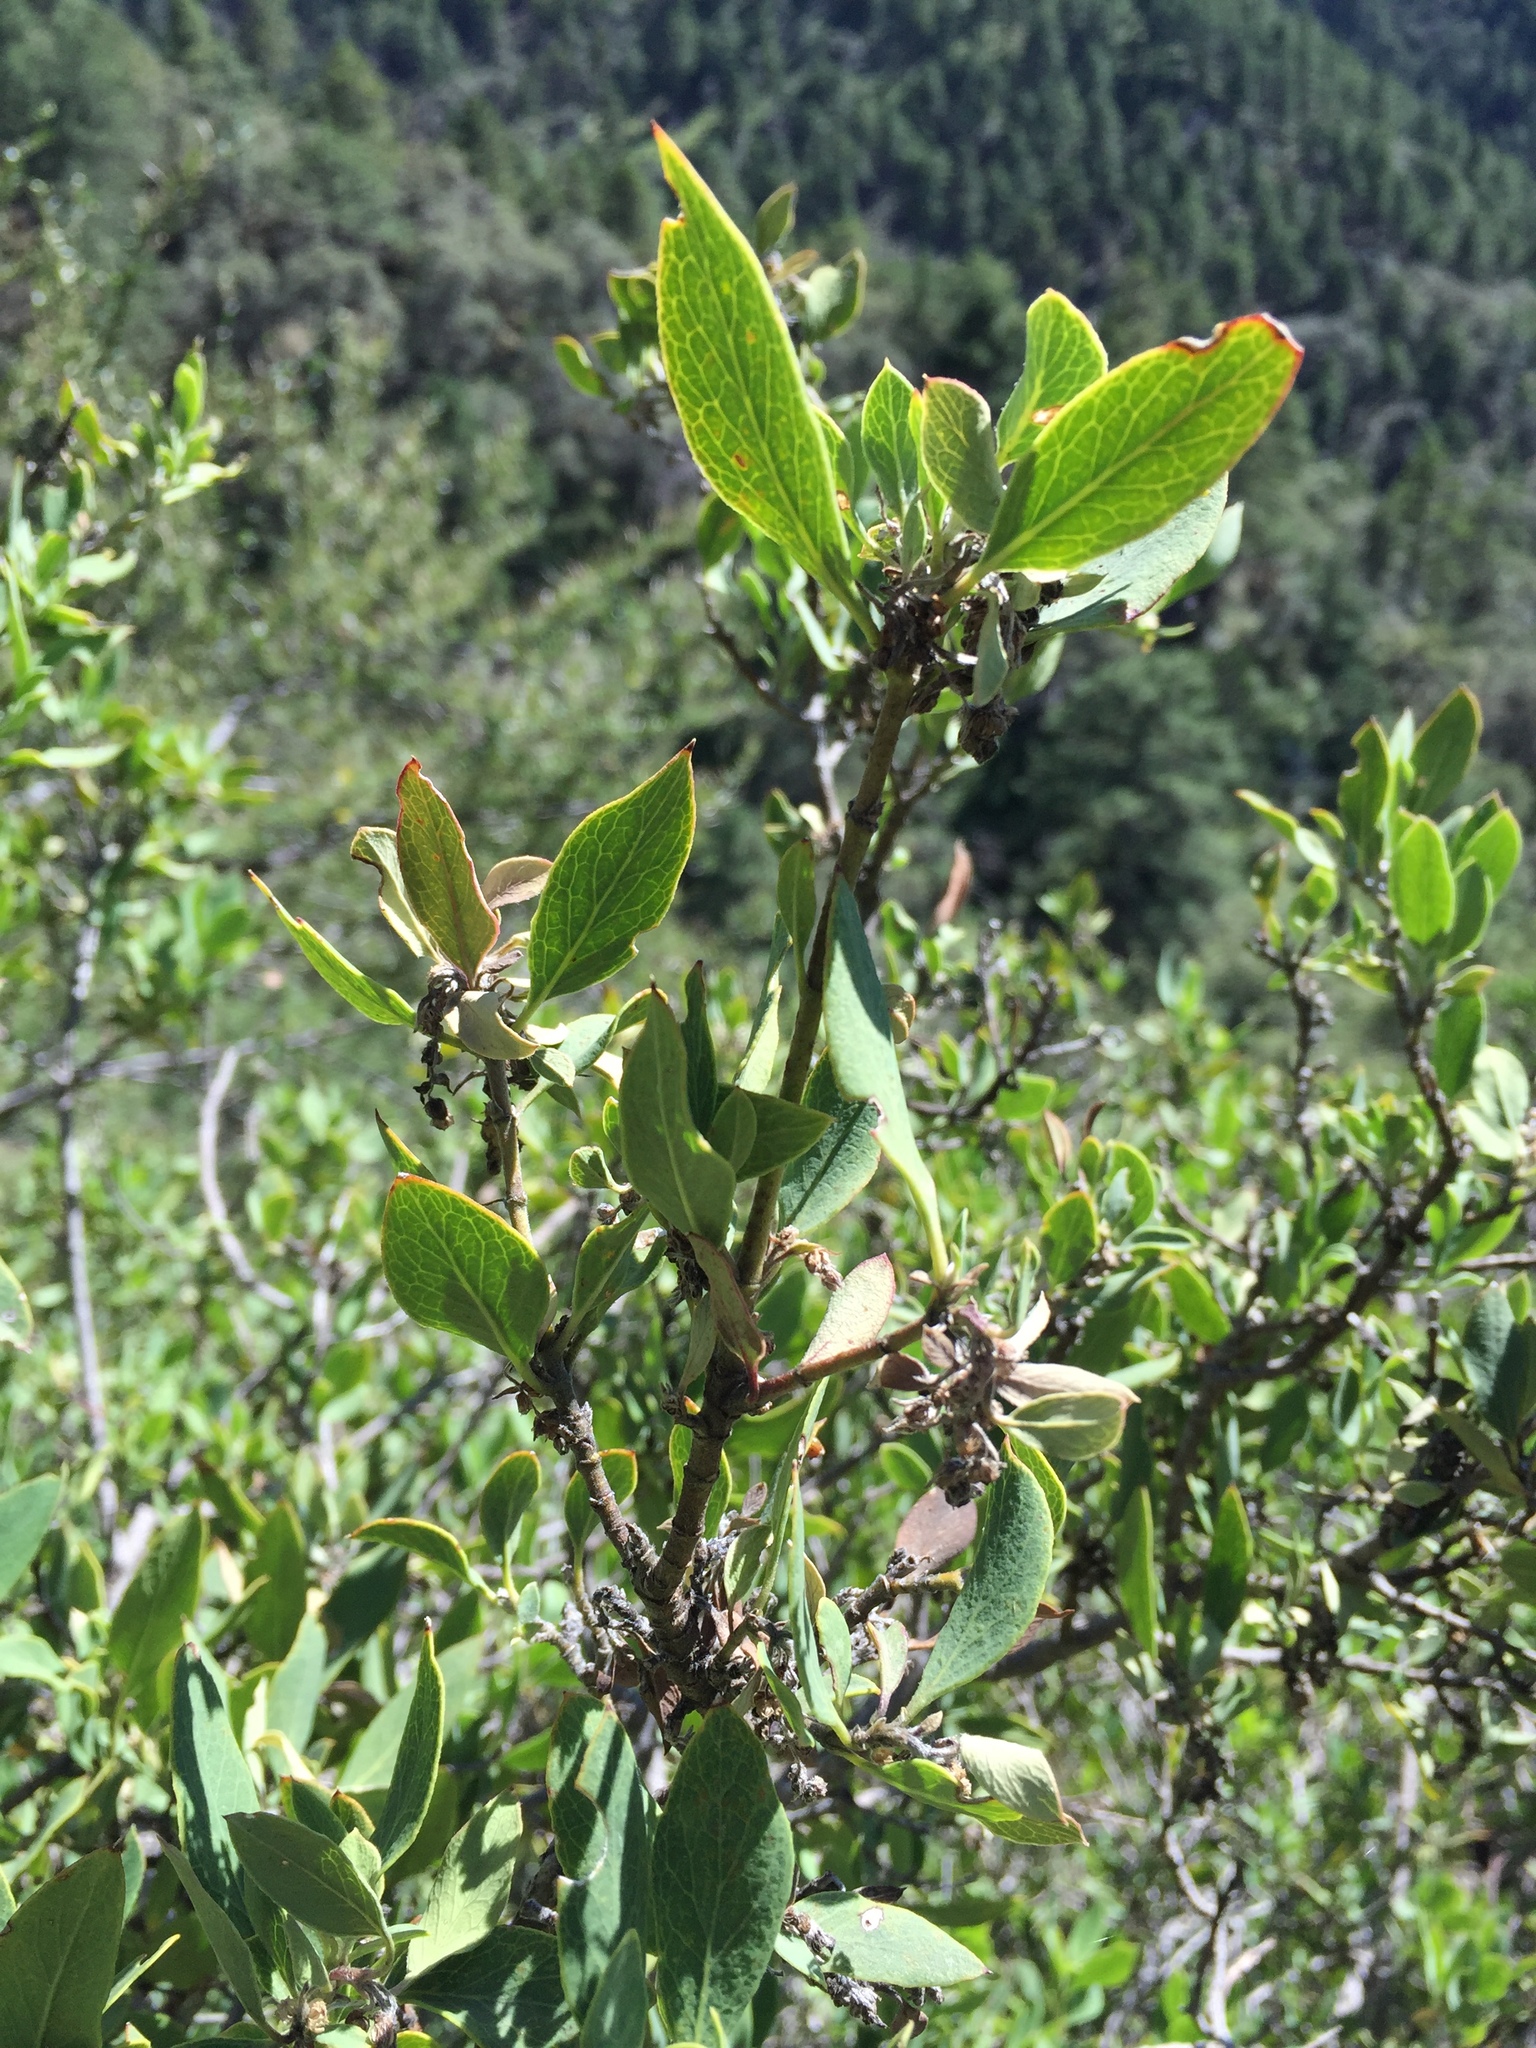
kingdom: Plantae
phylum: Tracheophyta
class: Magnoliopsida
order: Garryales
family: Garryaceae
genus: Garrya
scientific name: Garrya wrightii
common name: Wright's silktassel
